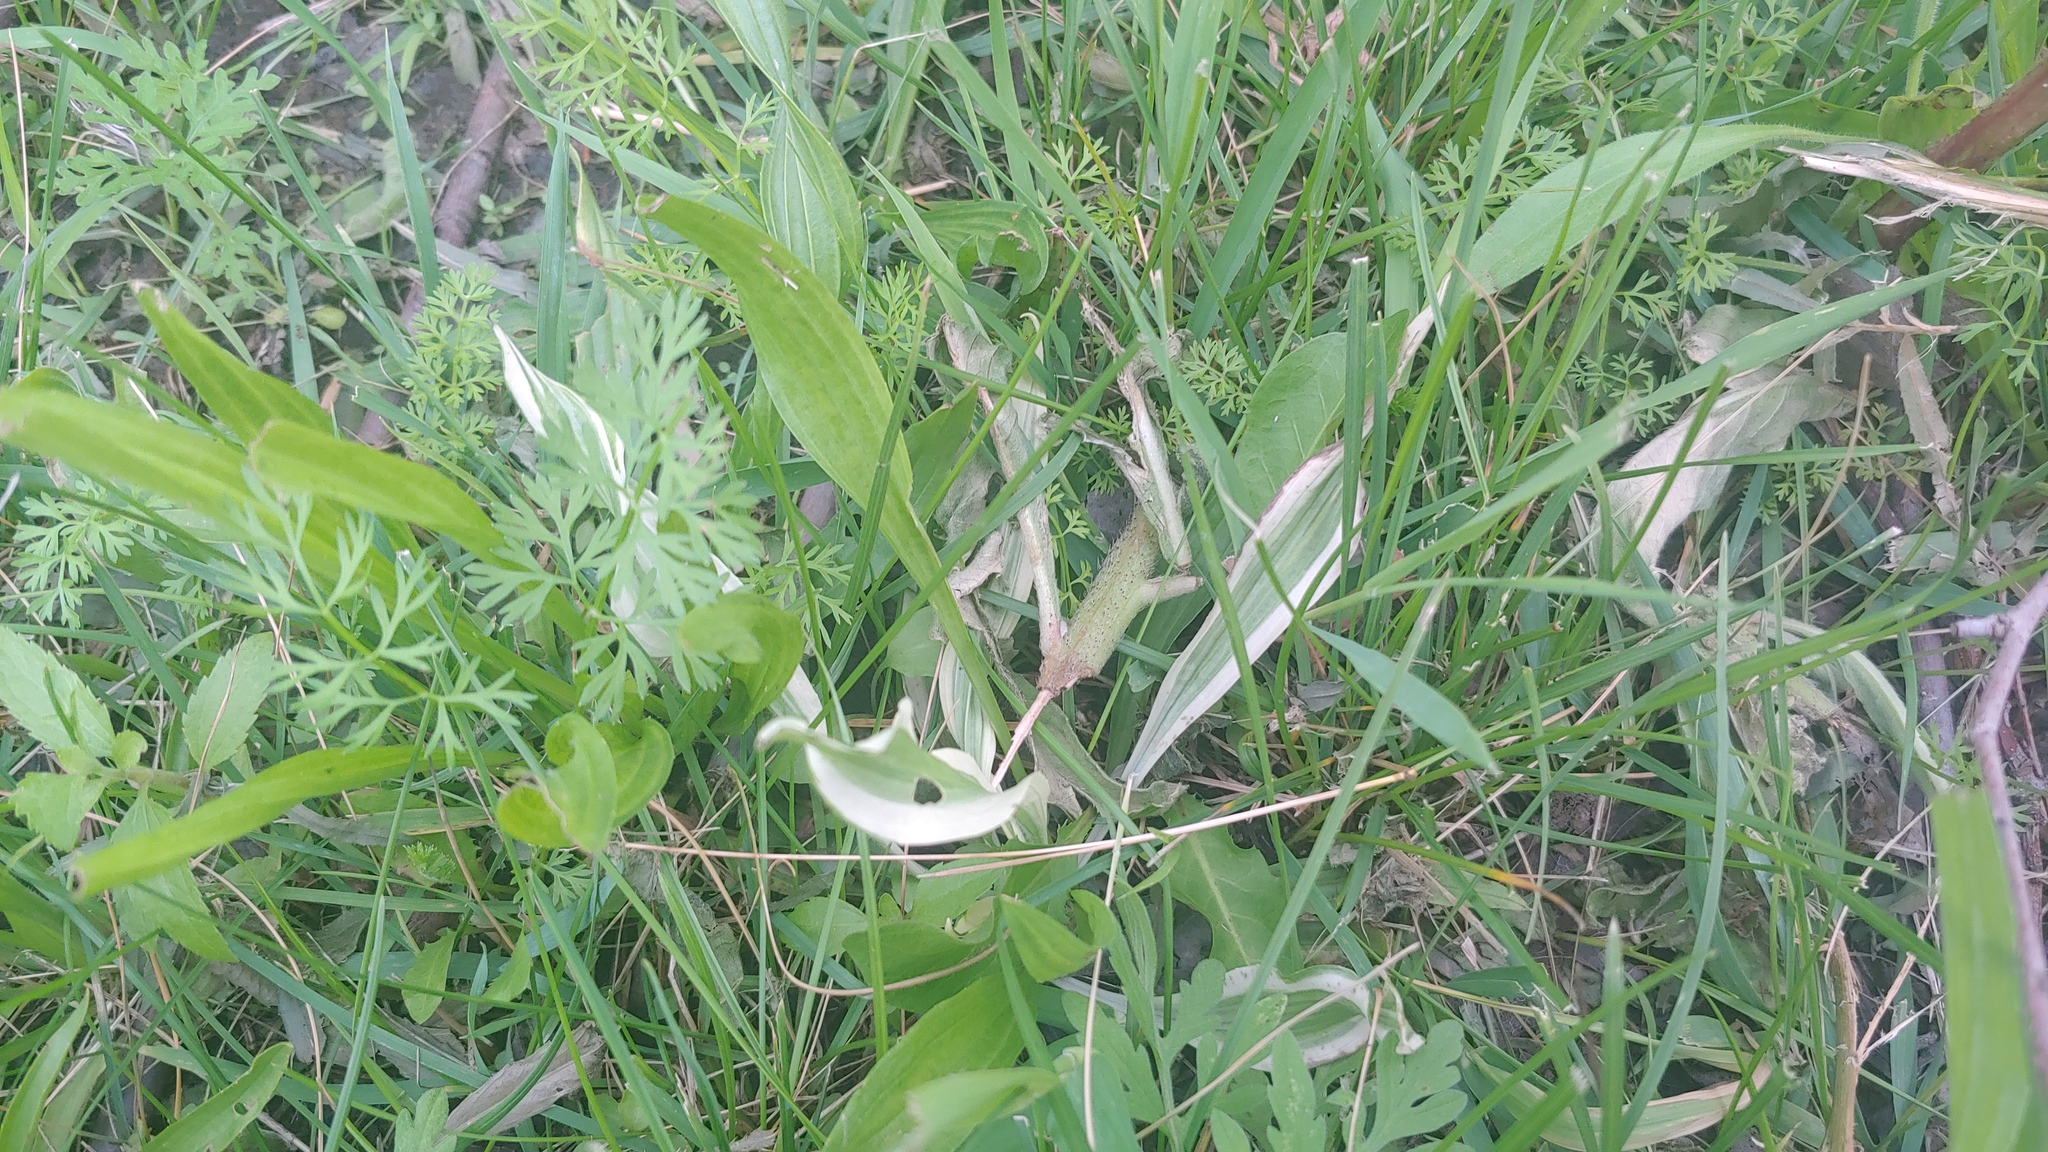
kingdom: Plantae
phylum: Tracheophyta
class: Magnoliopsida
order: Lamiales
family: Plantaginaceae
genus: Plantago
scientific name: Plantago lanceolata
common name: Ribwort plantain
